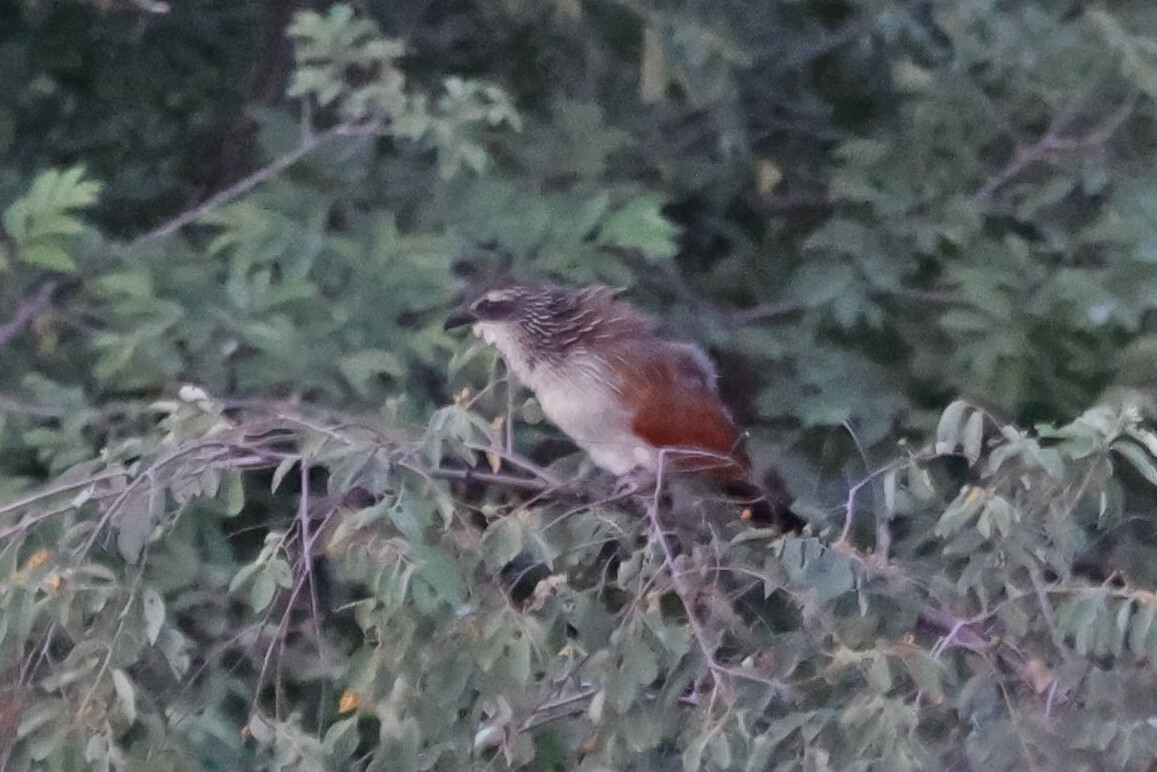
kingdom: Animalia
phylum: Chordata
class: Aves
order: Cuculiformes
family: Cuculidae
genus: Centropus
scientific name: Centropus superciliosus
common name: White-browed coucal
